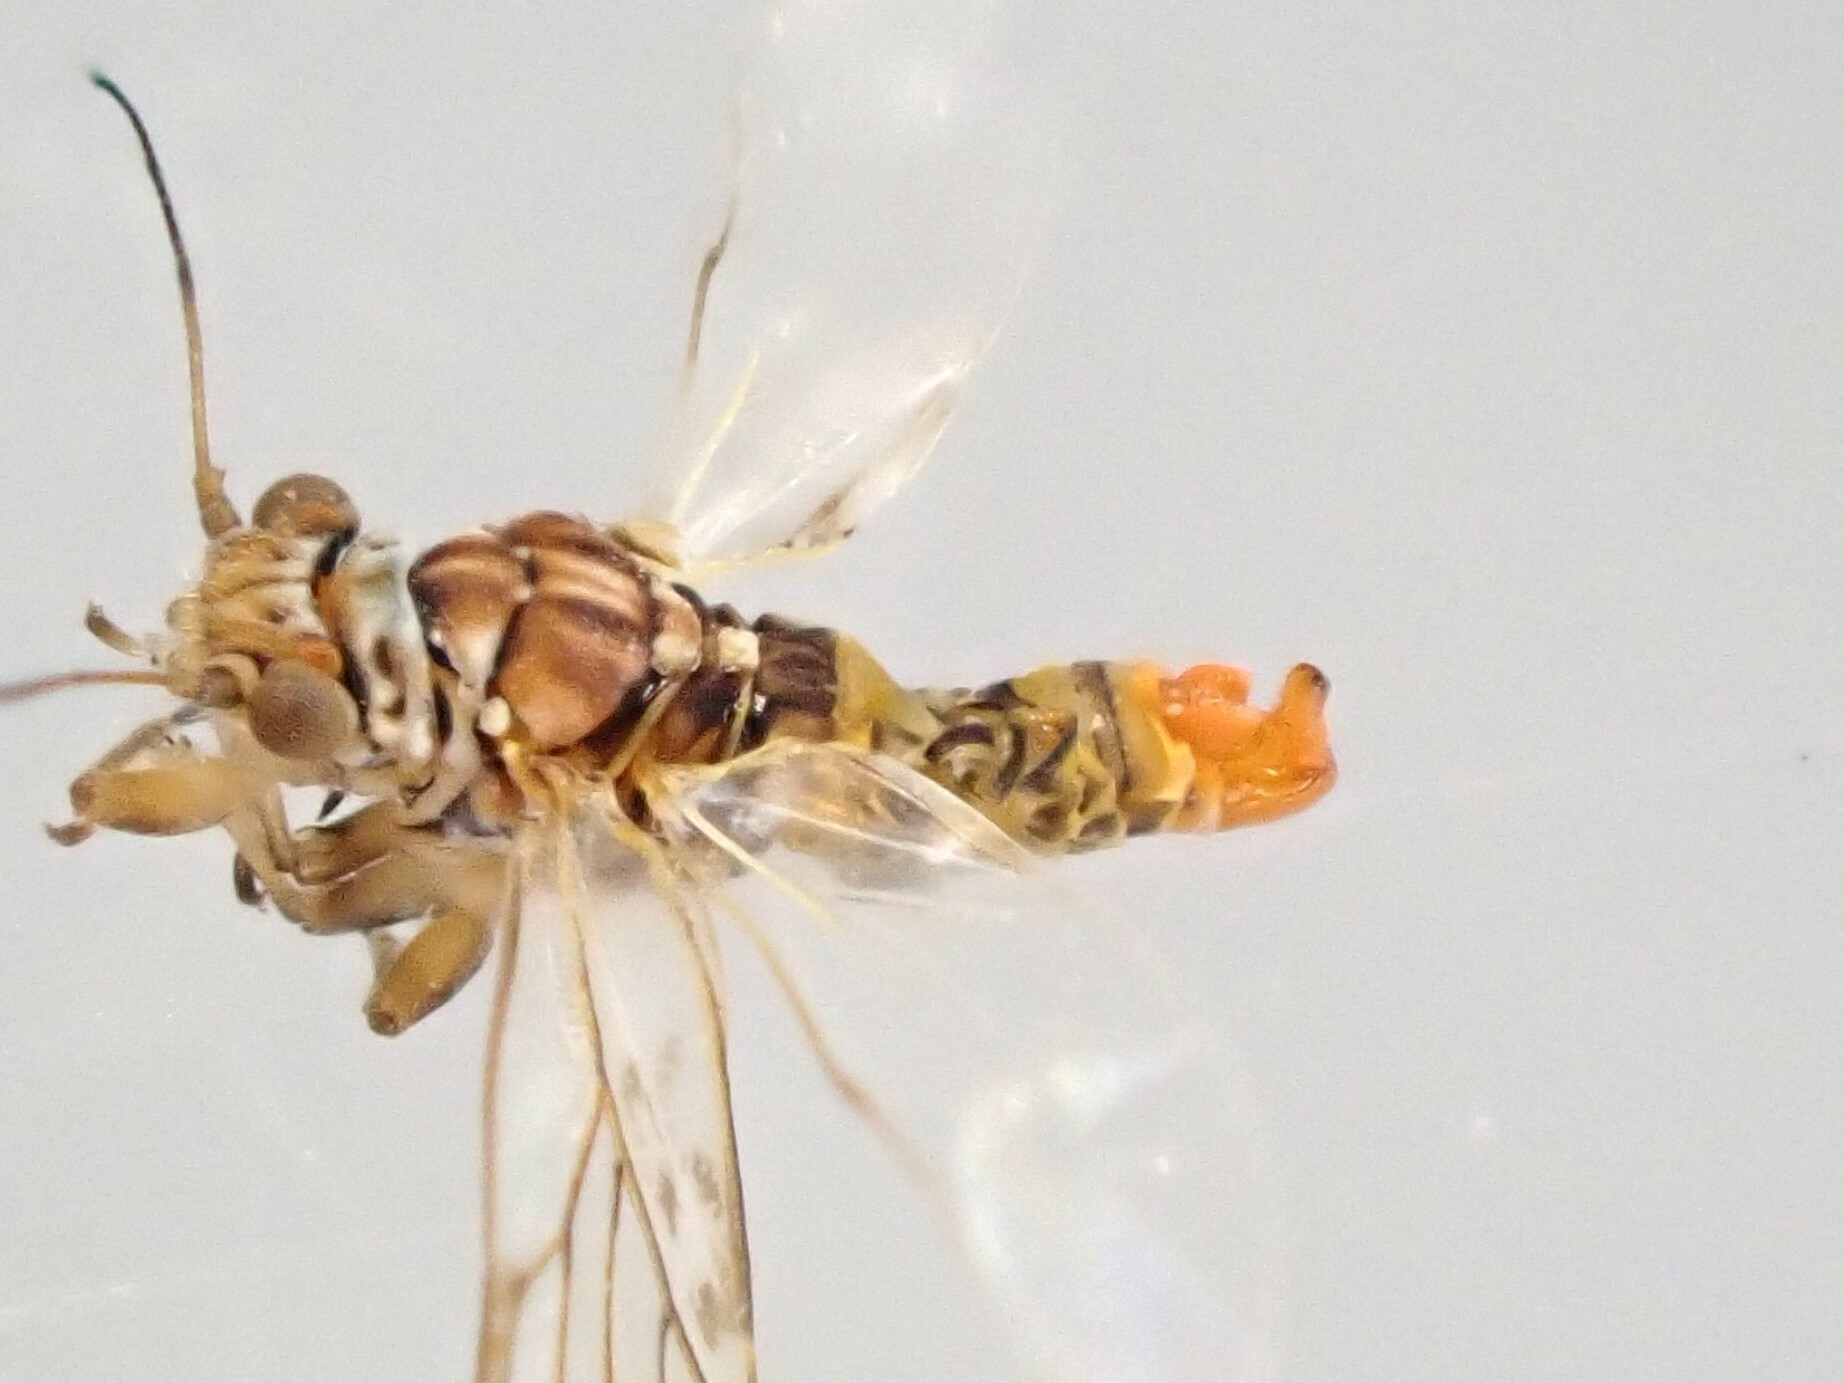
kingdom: Animalia
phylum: Arthropoda
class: Insecta
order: Hemiptera
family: Psyllidae
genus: Acizzia
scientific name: Acizzia acaciae
